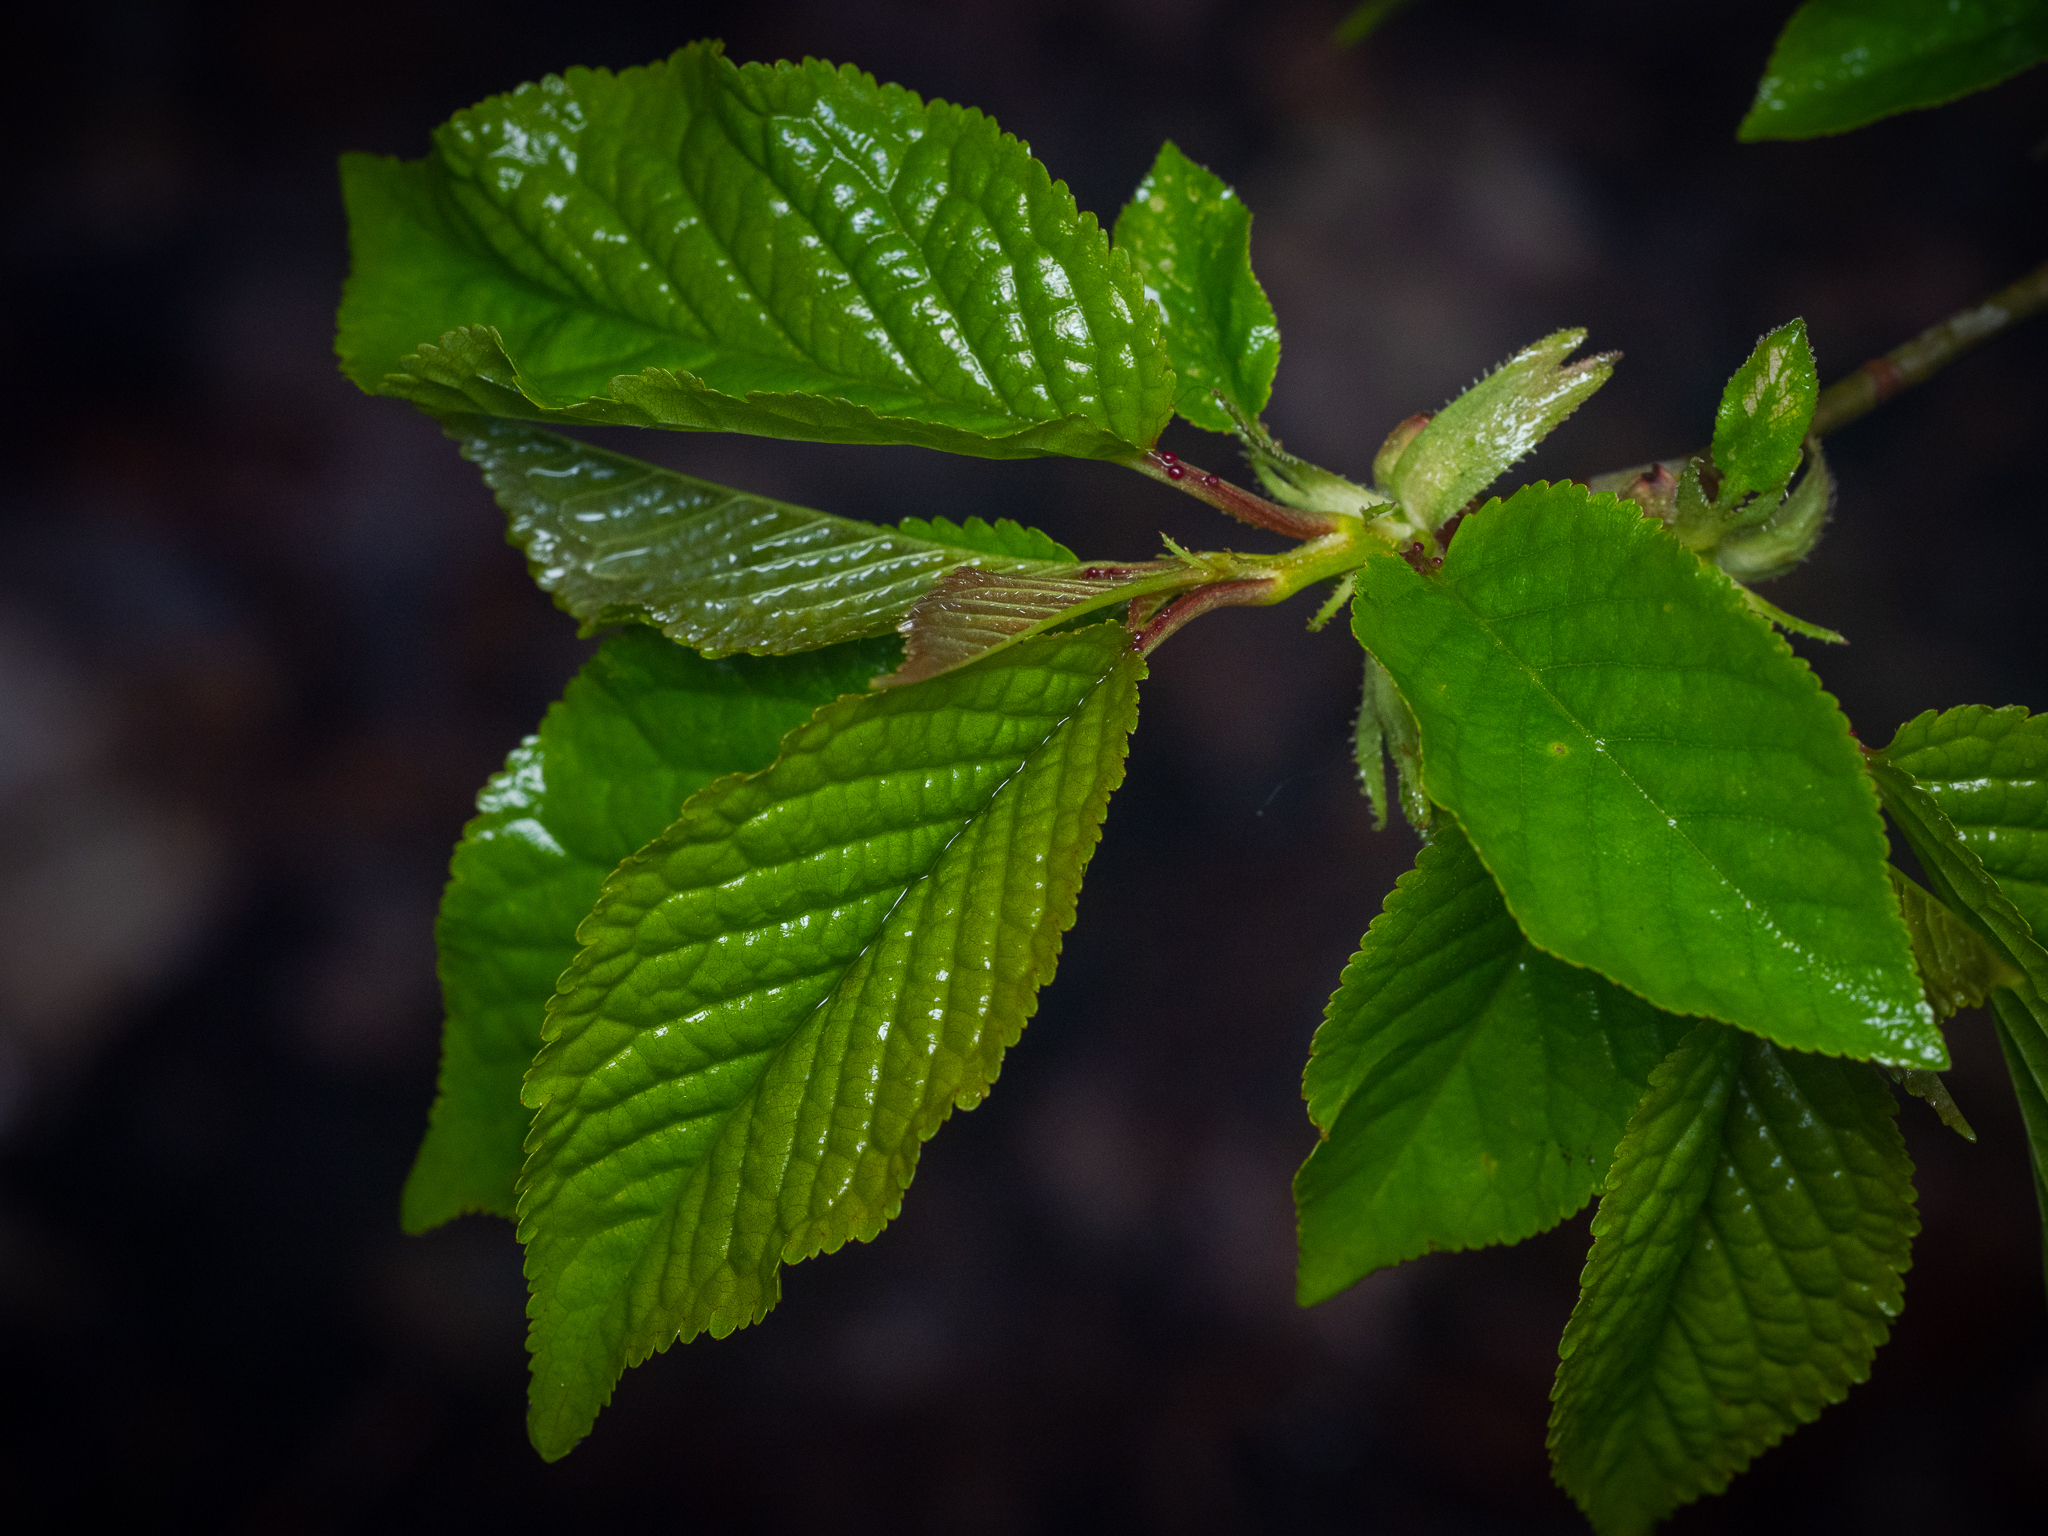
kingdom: Plantae
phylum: Tracheophyta
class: Magnoliopsida
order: Rosales
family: Rosaceae
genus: Prunus
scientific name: Prunus avium
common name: Sweet cherry
